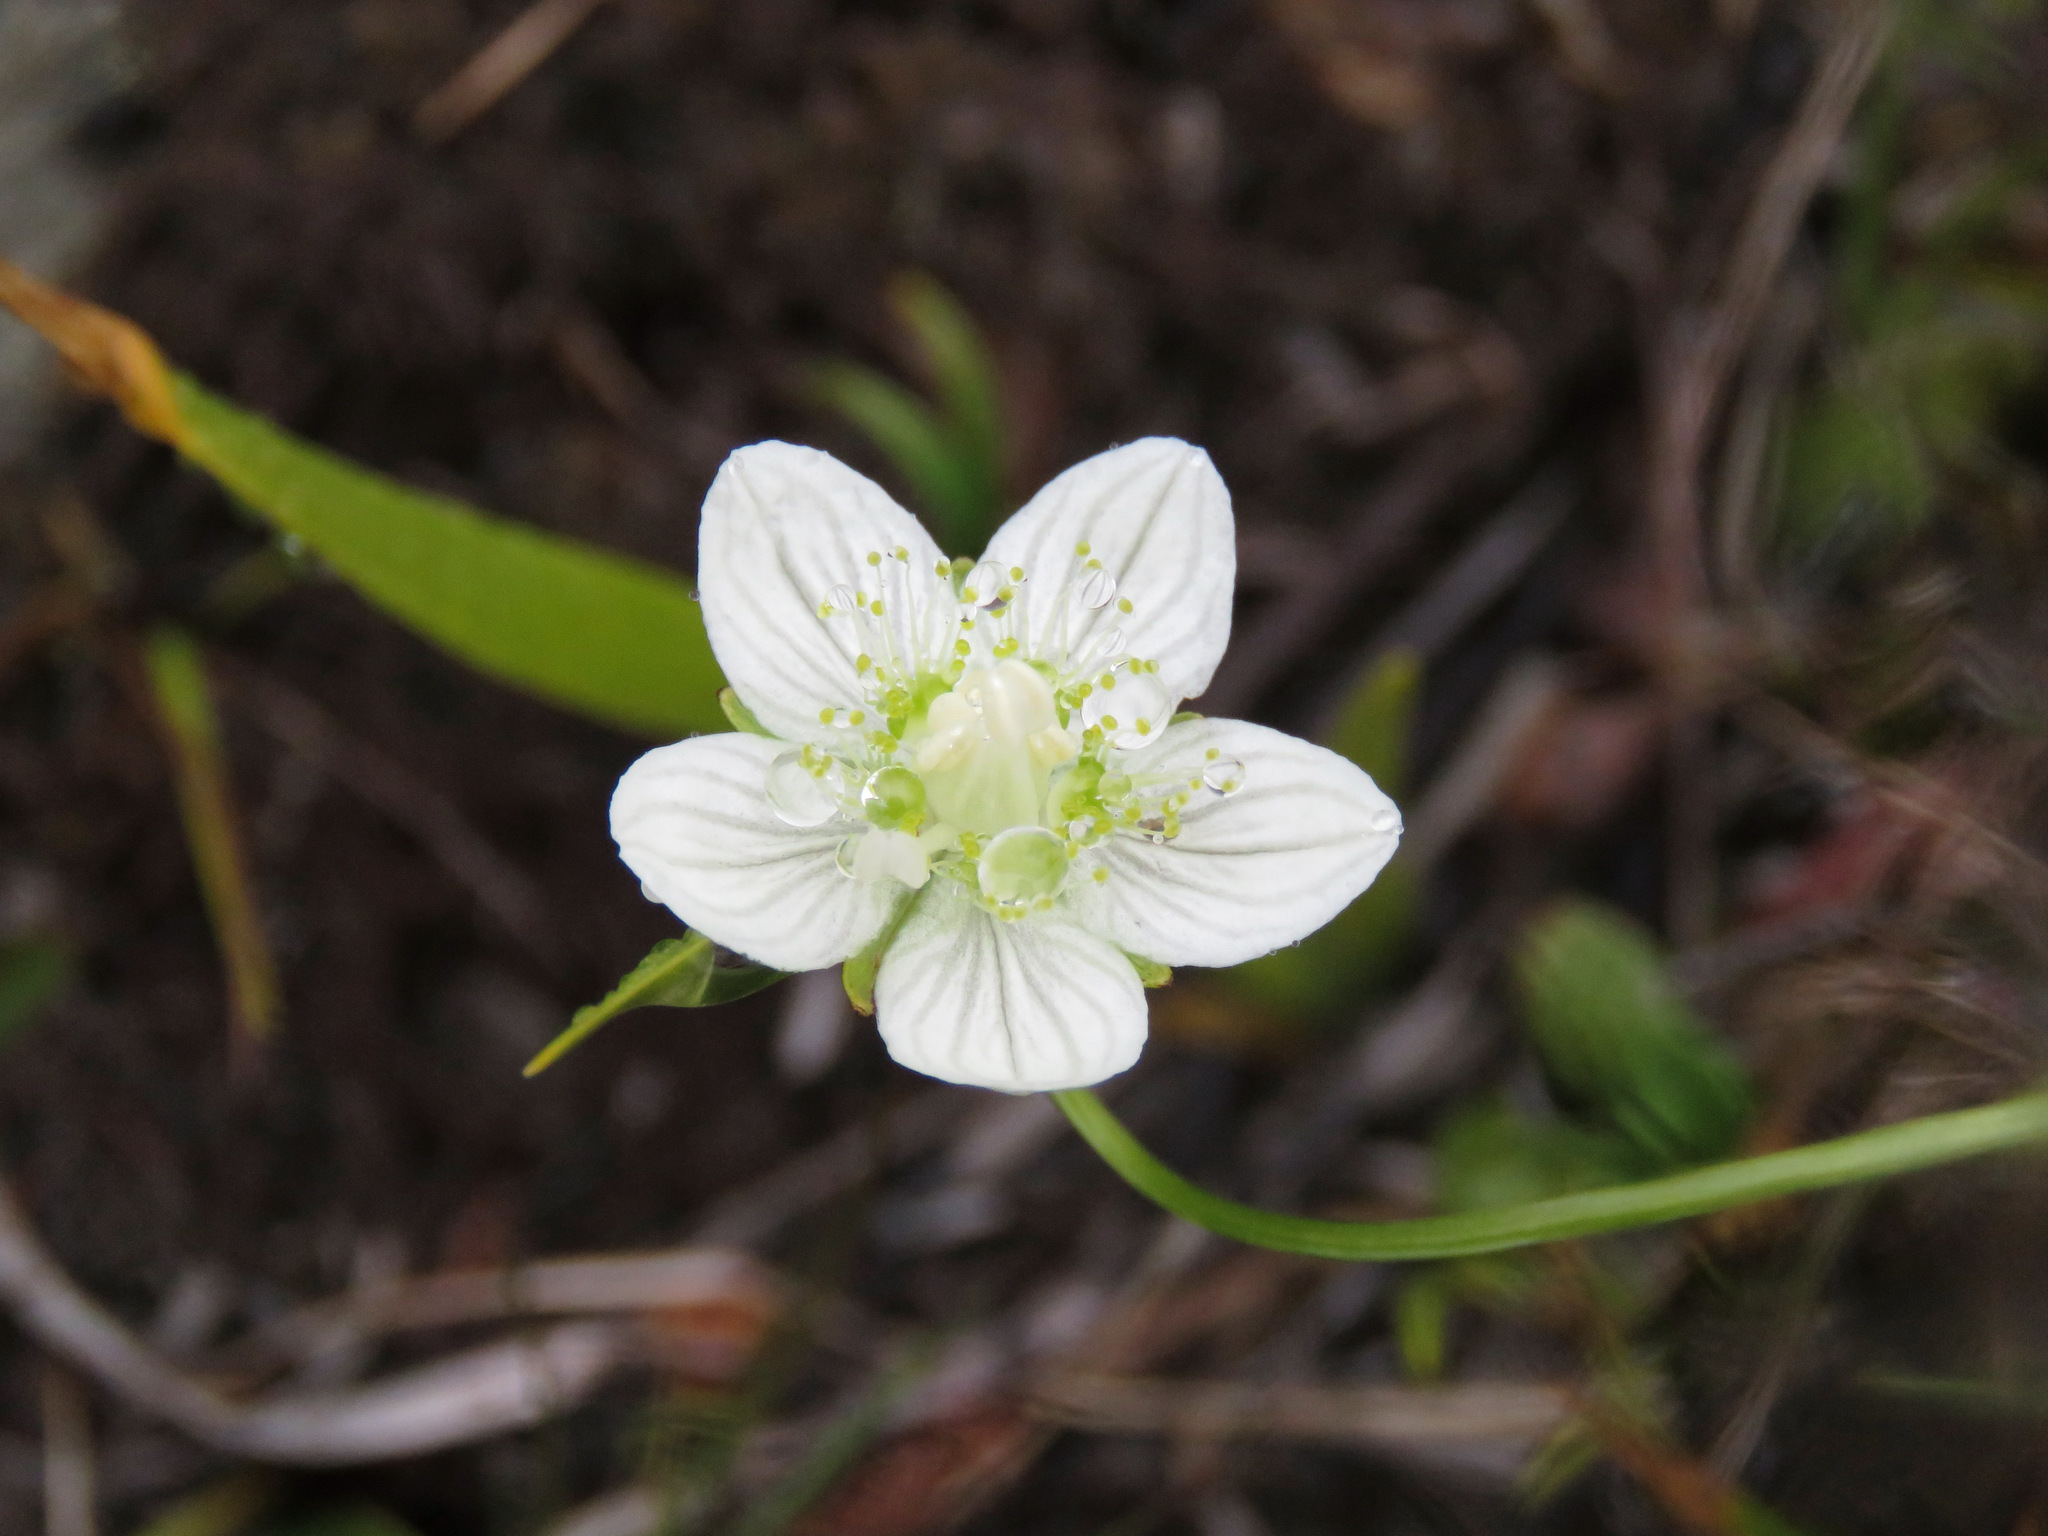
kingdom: Plantae
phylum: Tracheophyta
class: Magnoliopsida
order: Celastrales
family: Parnassiaceae
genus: Parnassia
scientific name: Parnassia palustris
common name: Grass-of-parnassus
